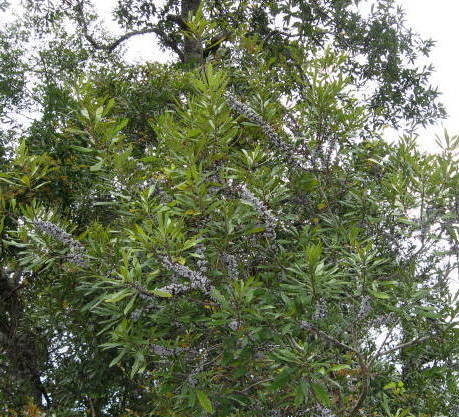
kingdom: Plantae
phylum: Tracheophyta
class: Magnoliopsida
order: Fagales
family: Myricaceae
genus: Morella
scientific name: Morella cerifera
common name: Wax myrtle
